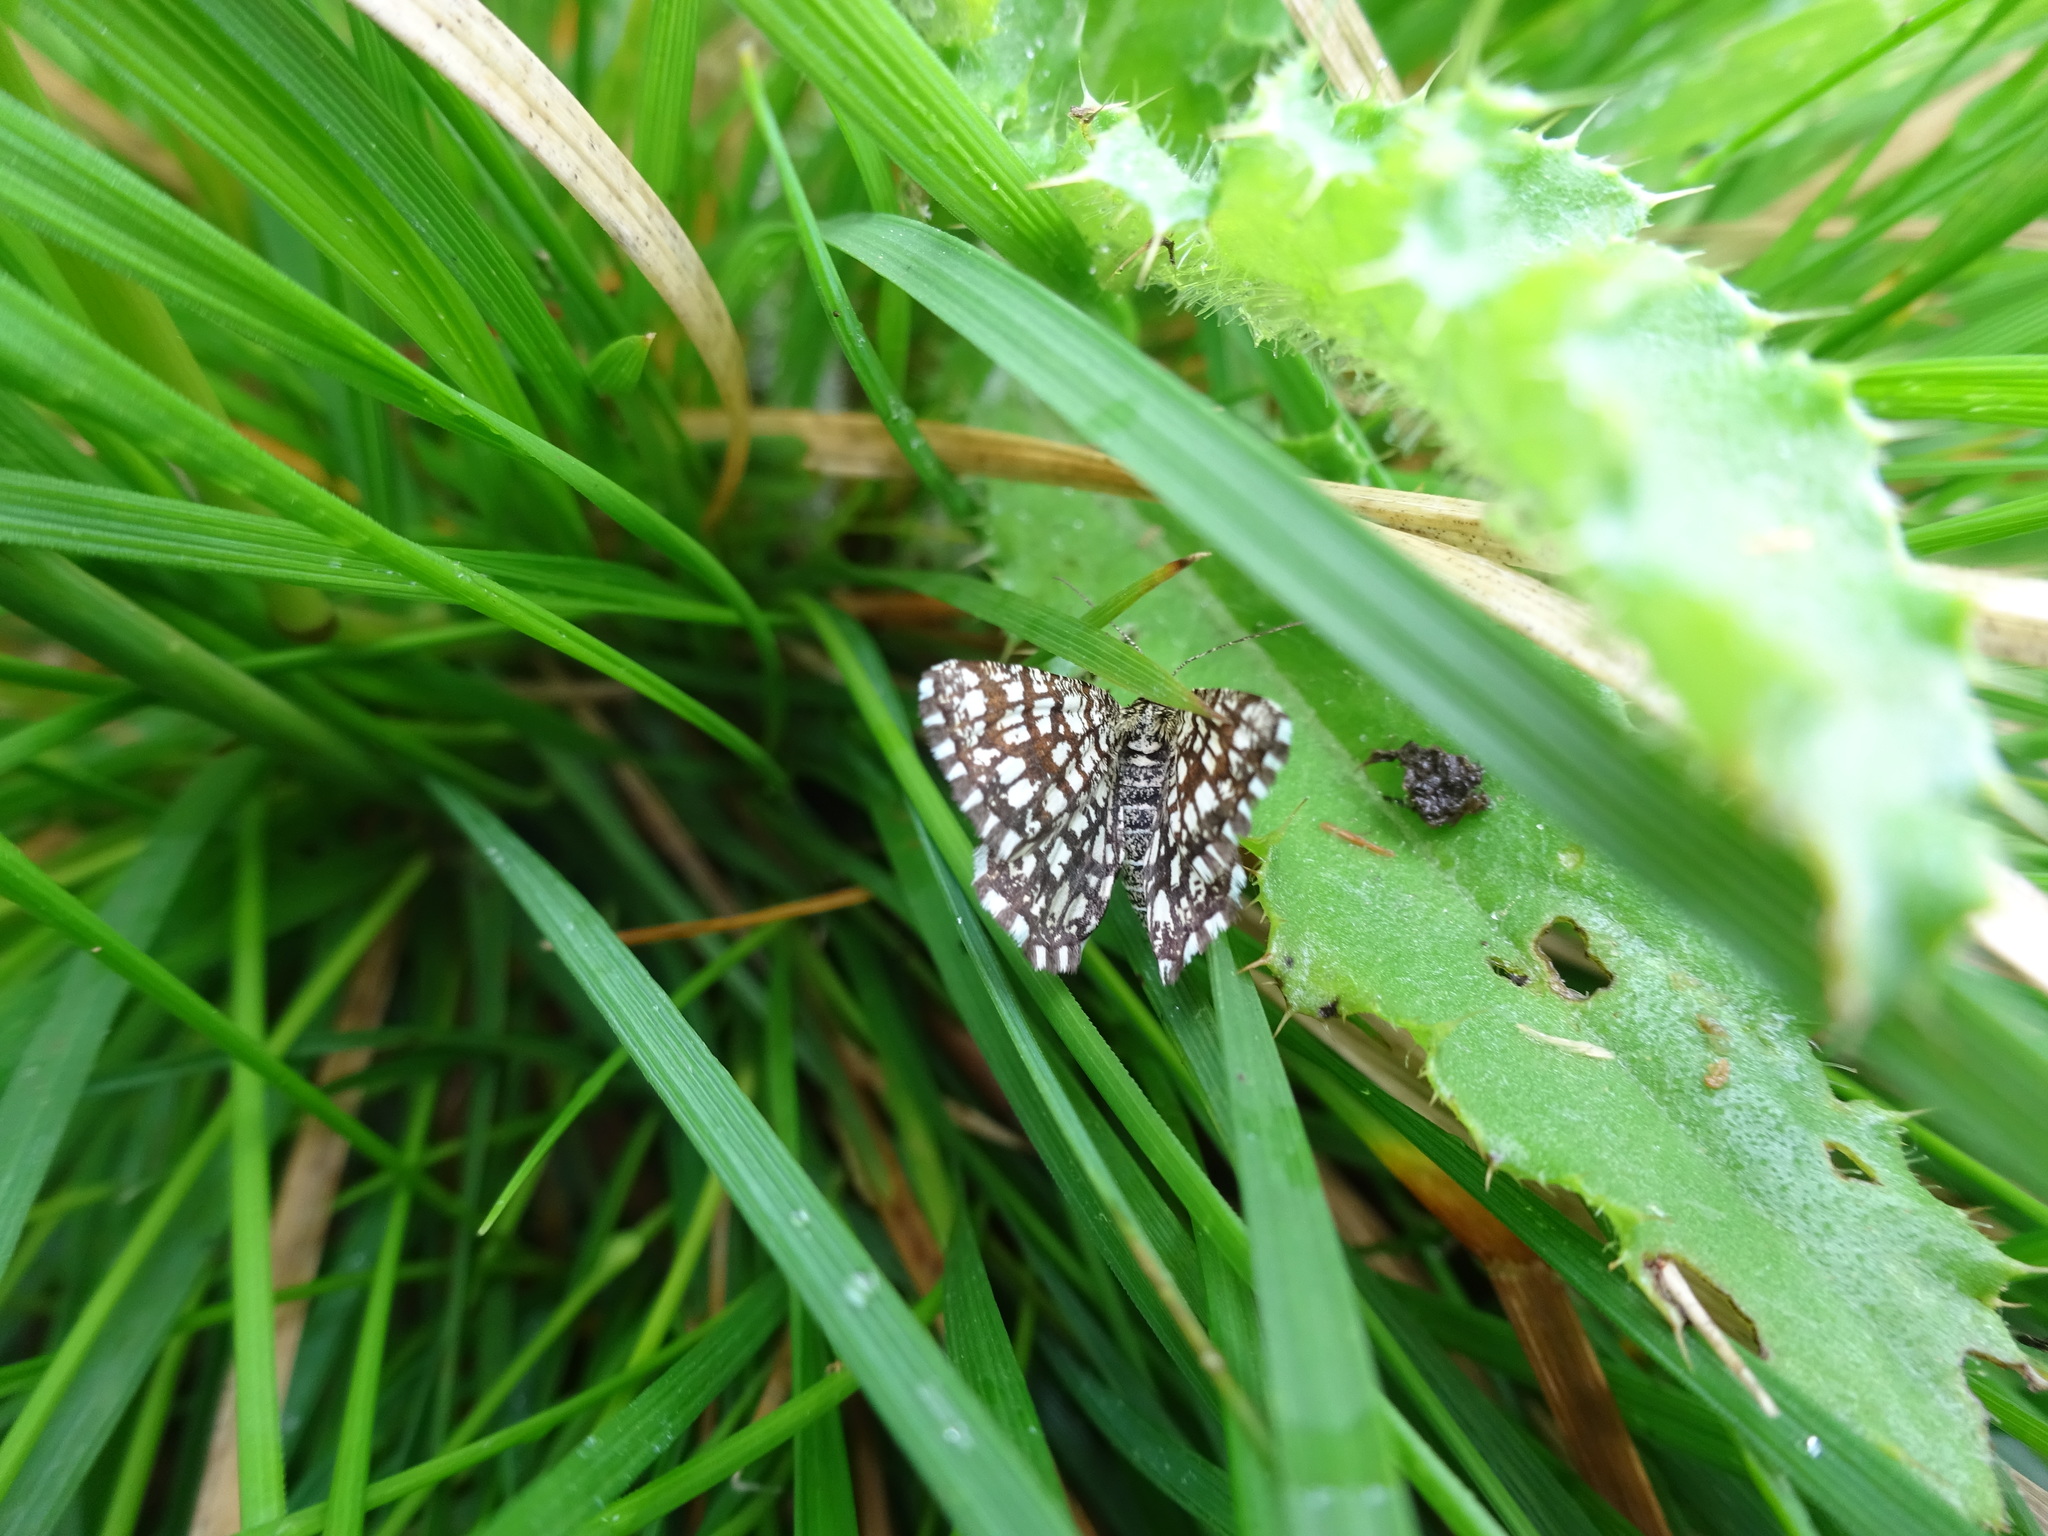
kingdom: Animalia
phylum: Arthropoda
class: Insecta
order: Lepidoptera
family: Geometridae
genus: Chiasmia
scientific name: Chiasmia clathrata
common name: Latticed heath
